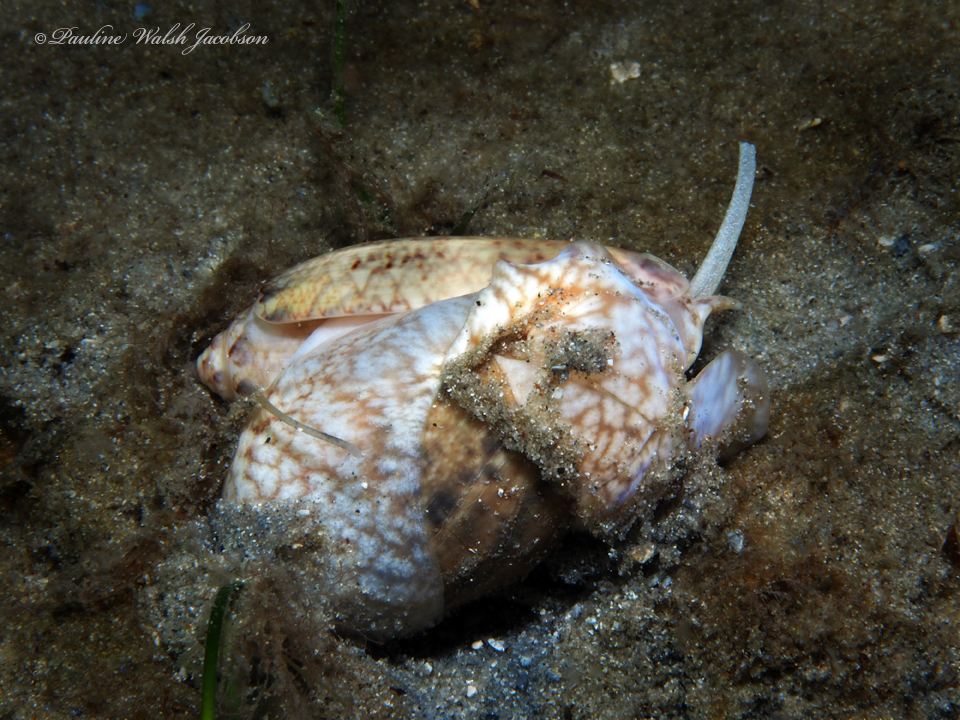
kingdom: Animalia
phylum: Mollusca
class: Gastropoda
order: Neogastropoda
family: Olividae
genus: Oliva
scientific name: Oliva sayana
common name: Lettered olive
